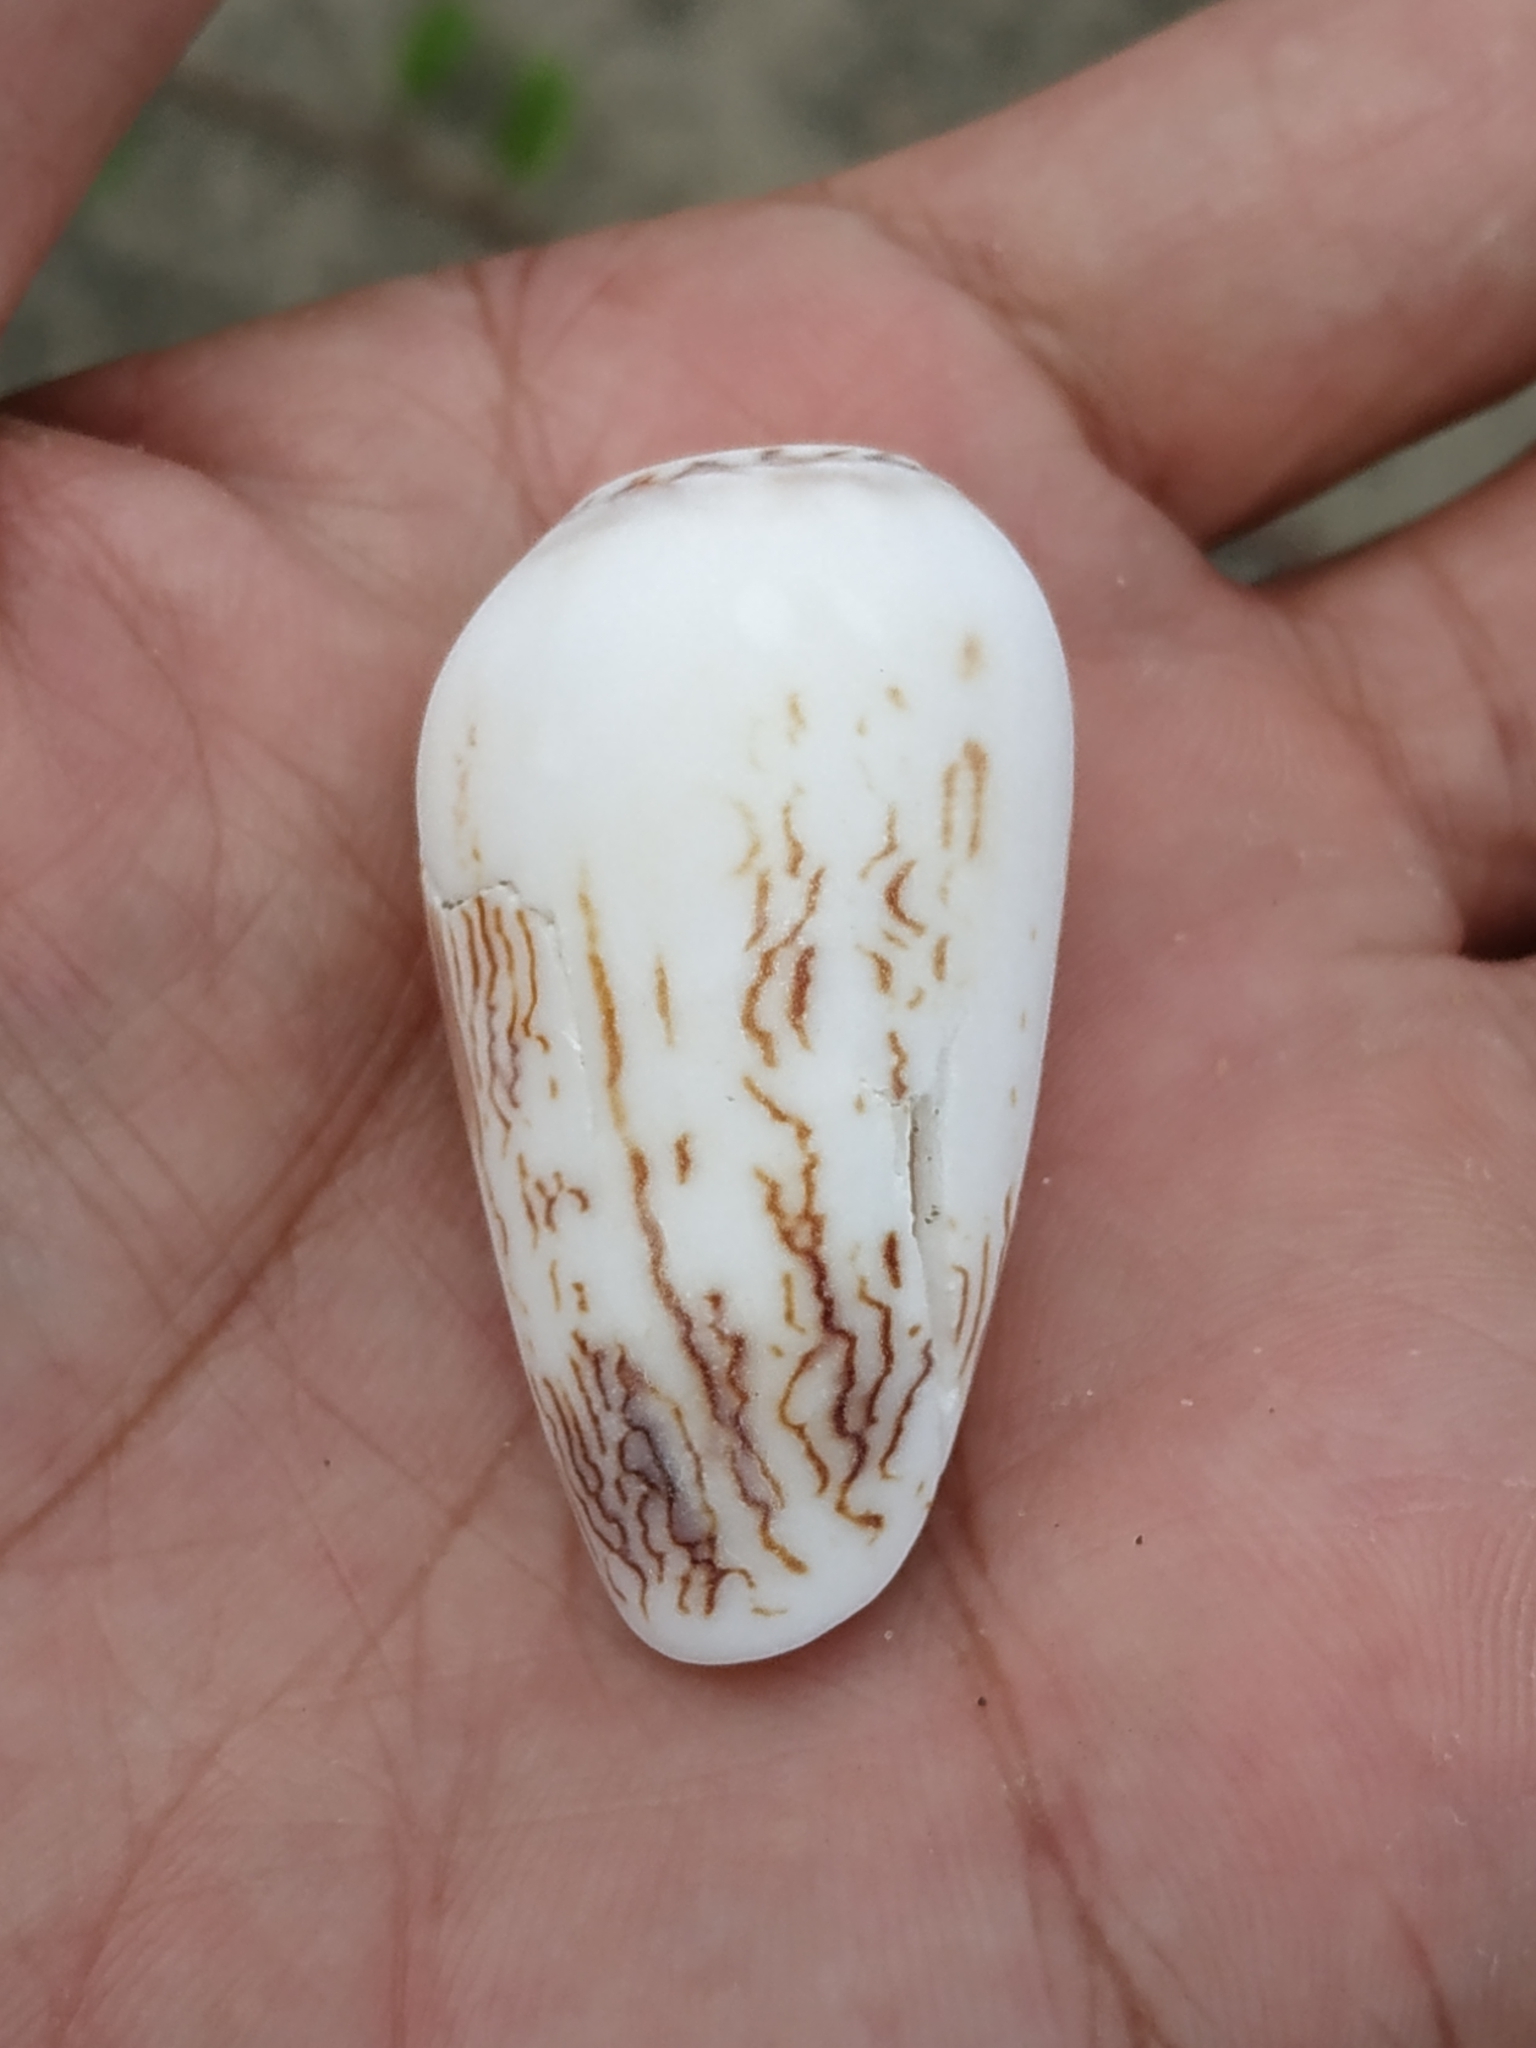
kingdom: Animalia
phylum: Mollusca
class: Gastropoda
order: Neogastropoda
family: Conidae
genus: Conus
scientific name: Conus textile
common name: Cloth-of-gold cone
